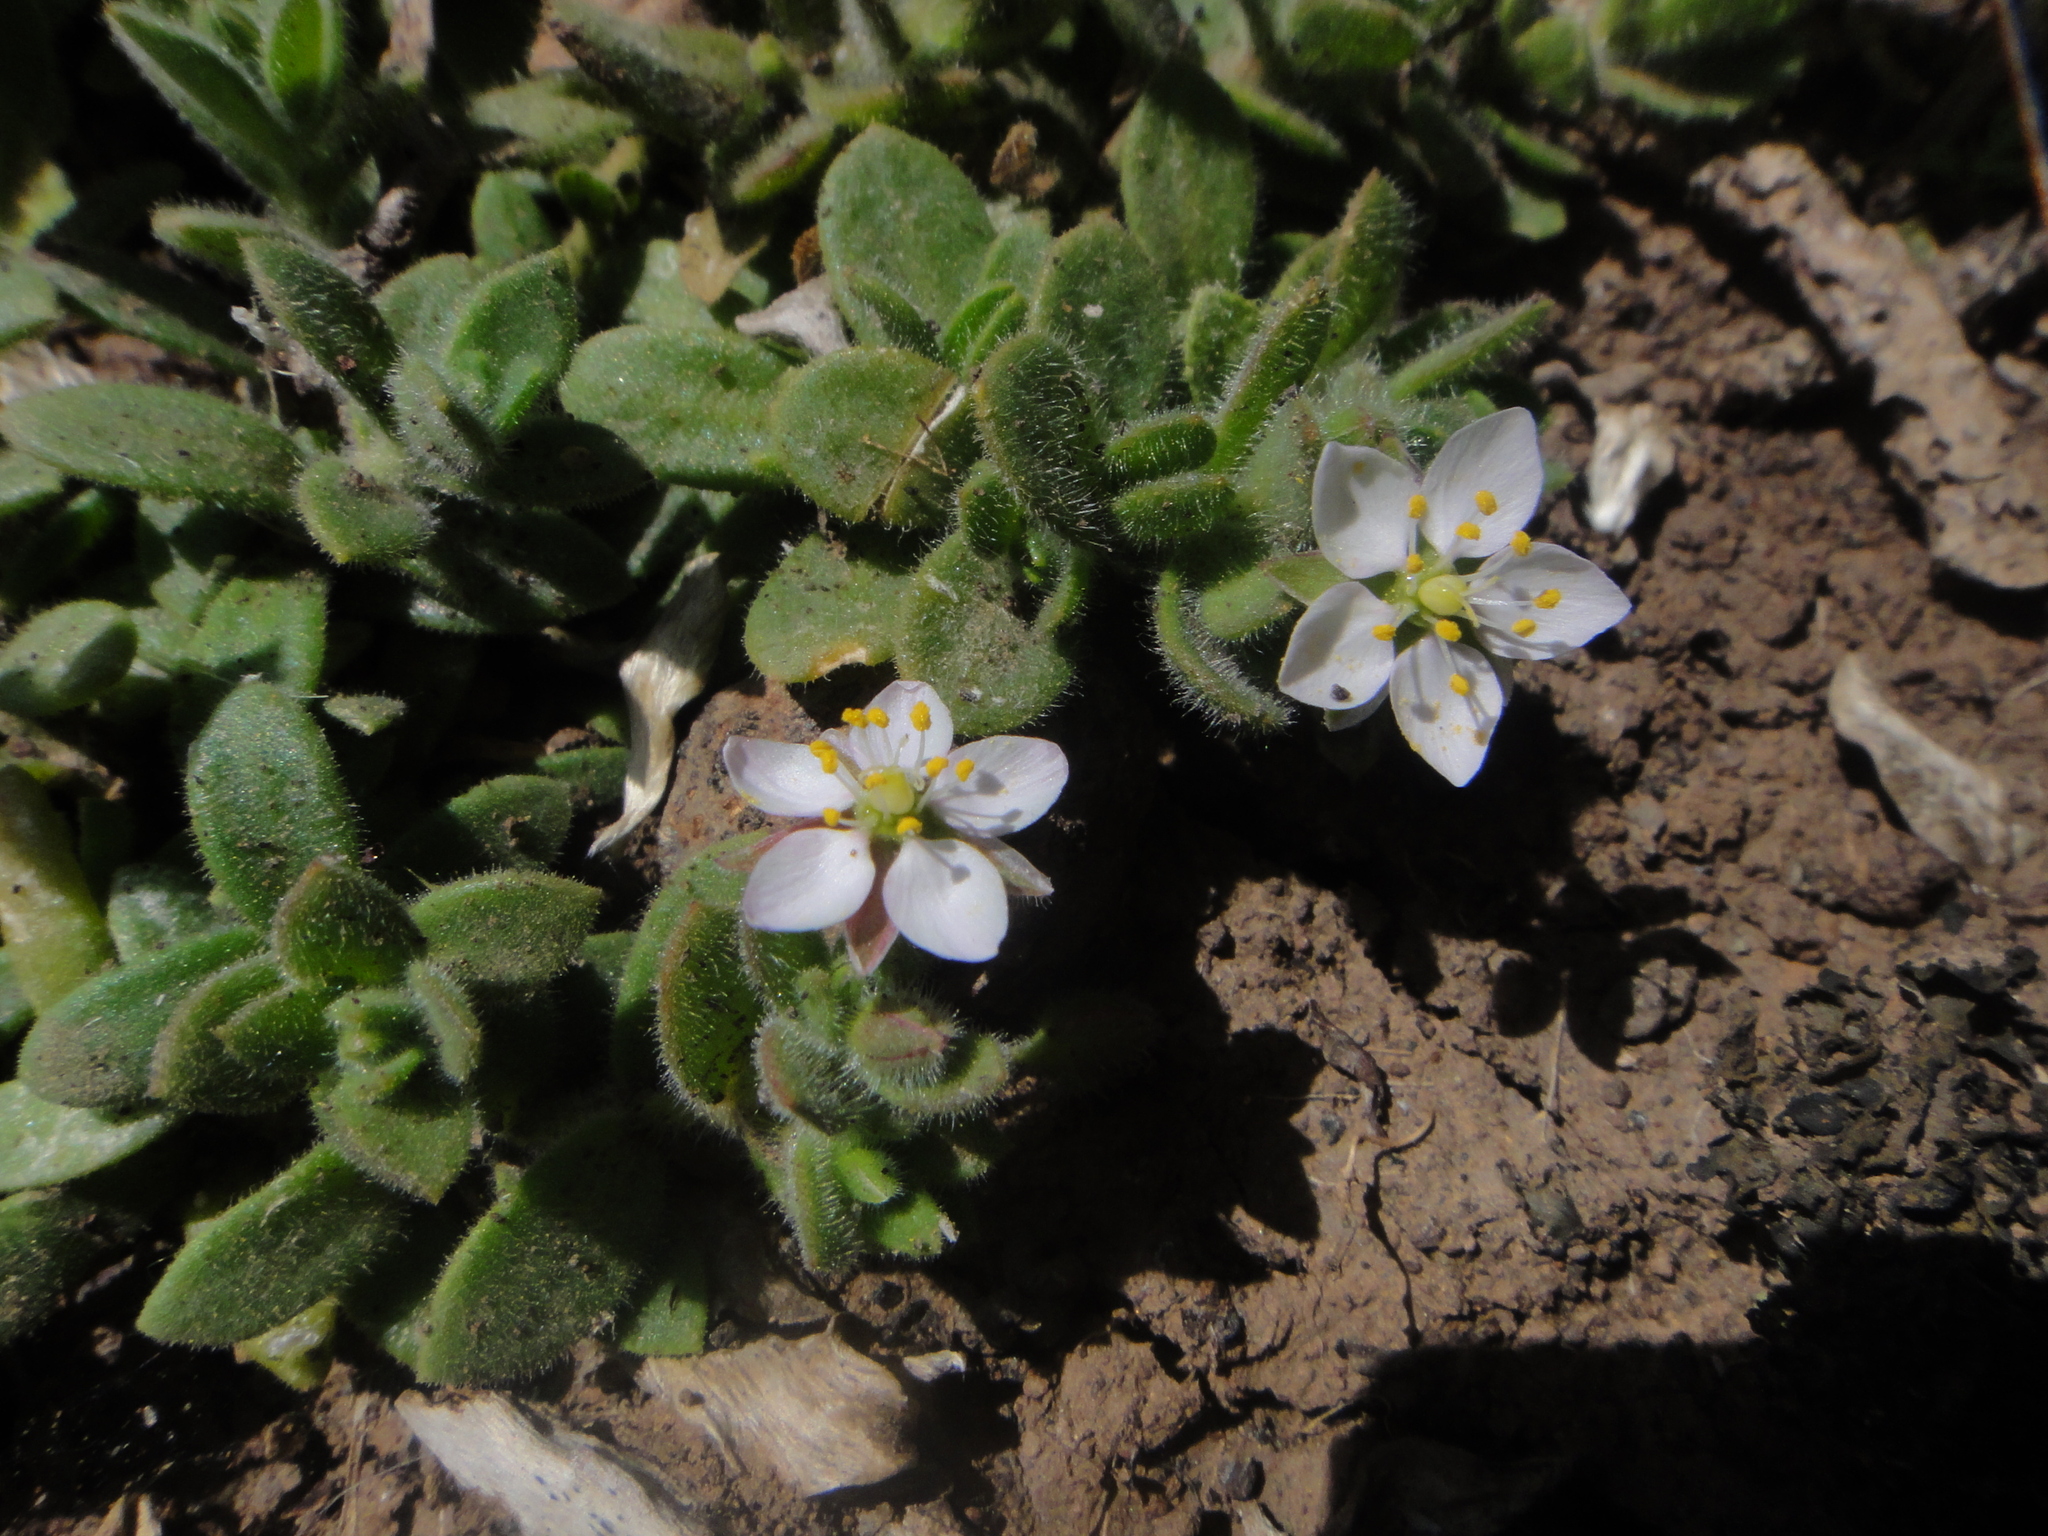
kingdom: Plantae
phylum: Tracheophyta
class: Magnoliopsida
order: Caryophyllales
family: Caryophyllaceae
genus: Rhodalsine
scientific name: Rhodalsine geniculata
